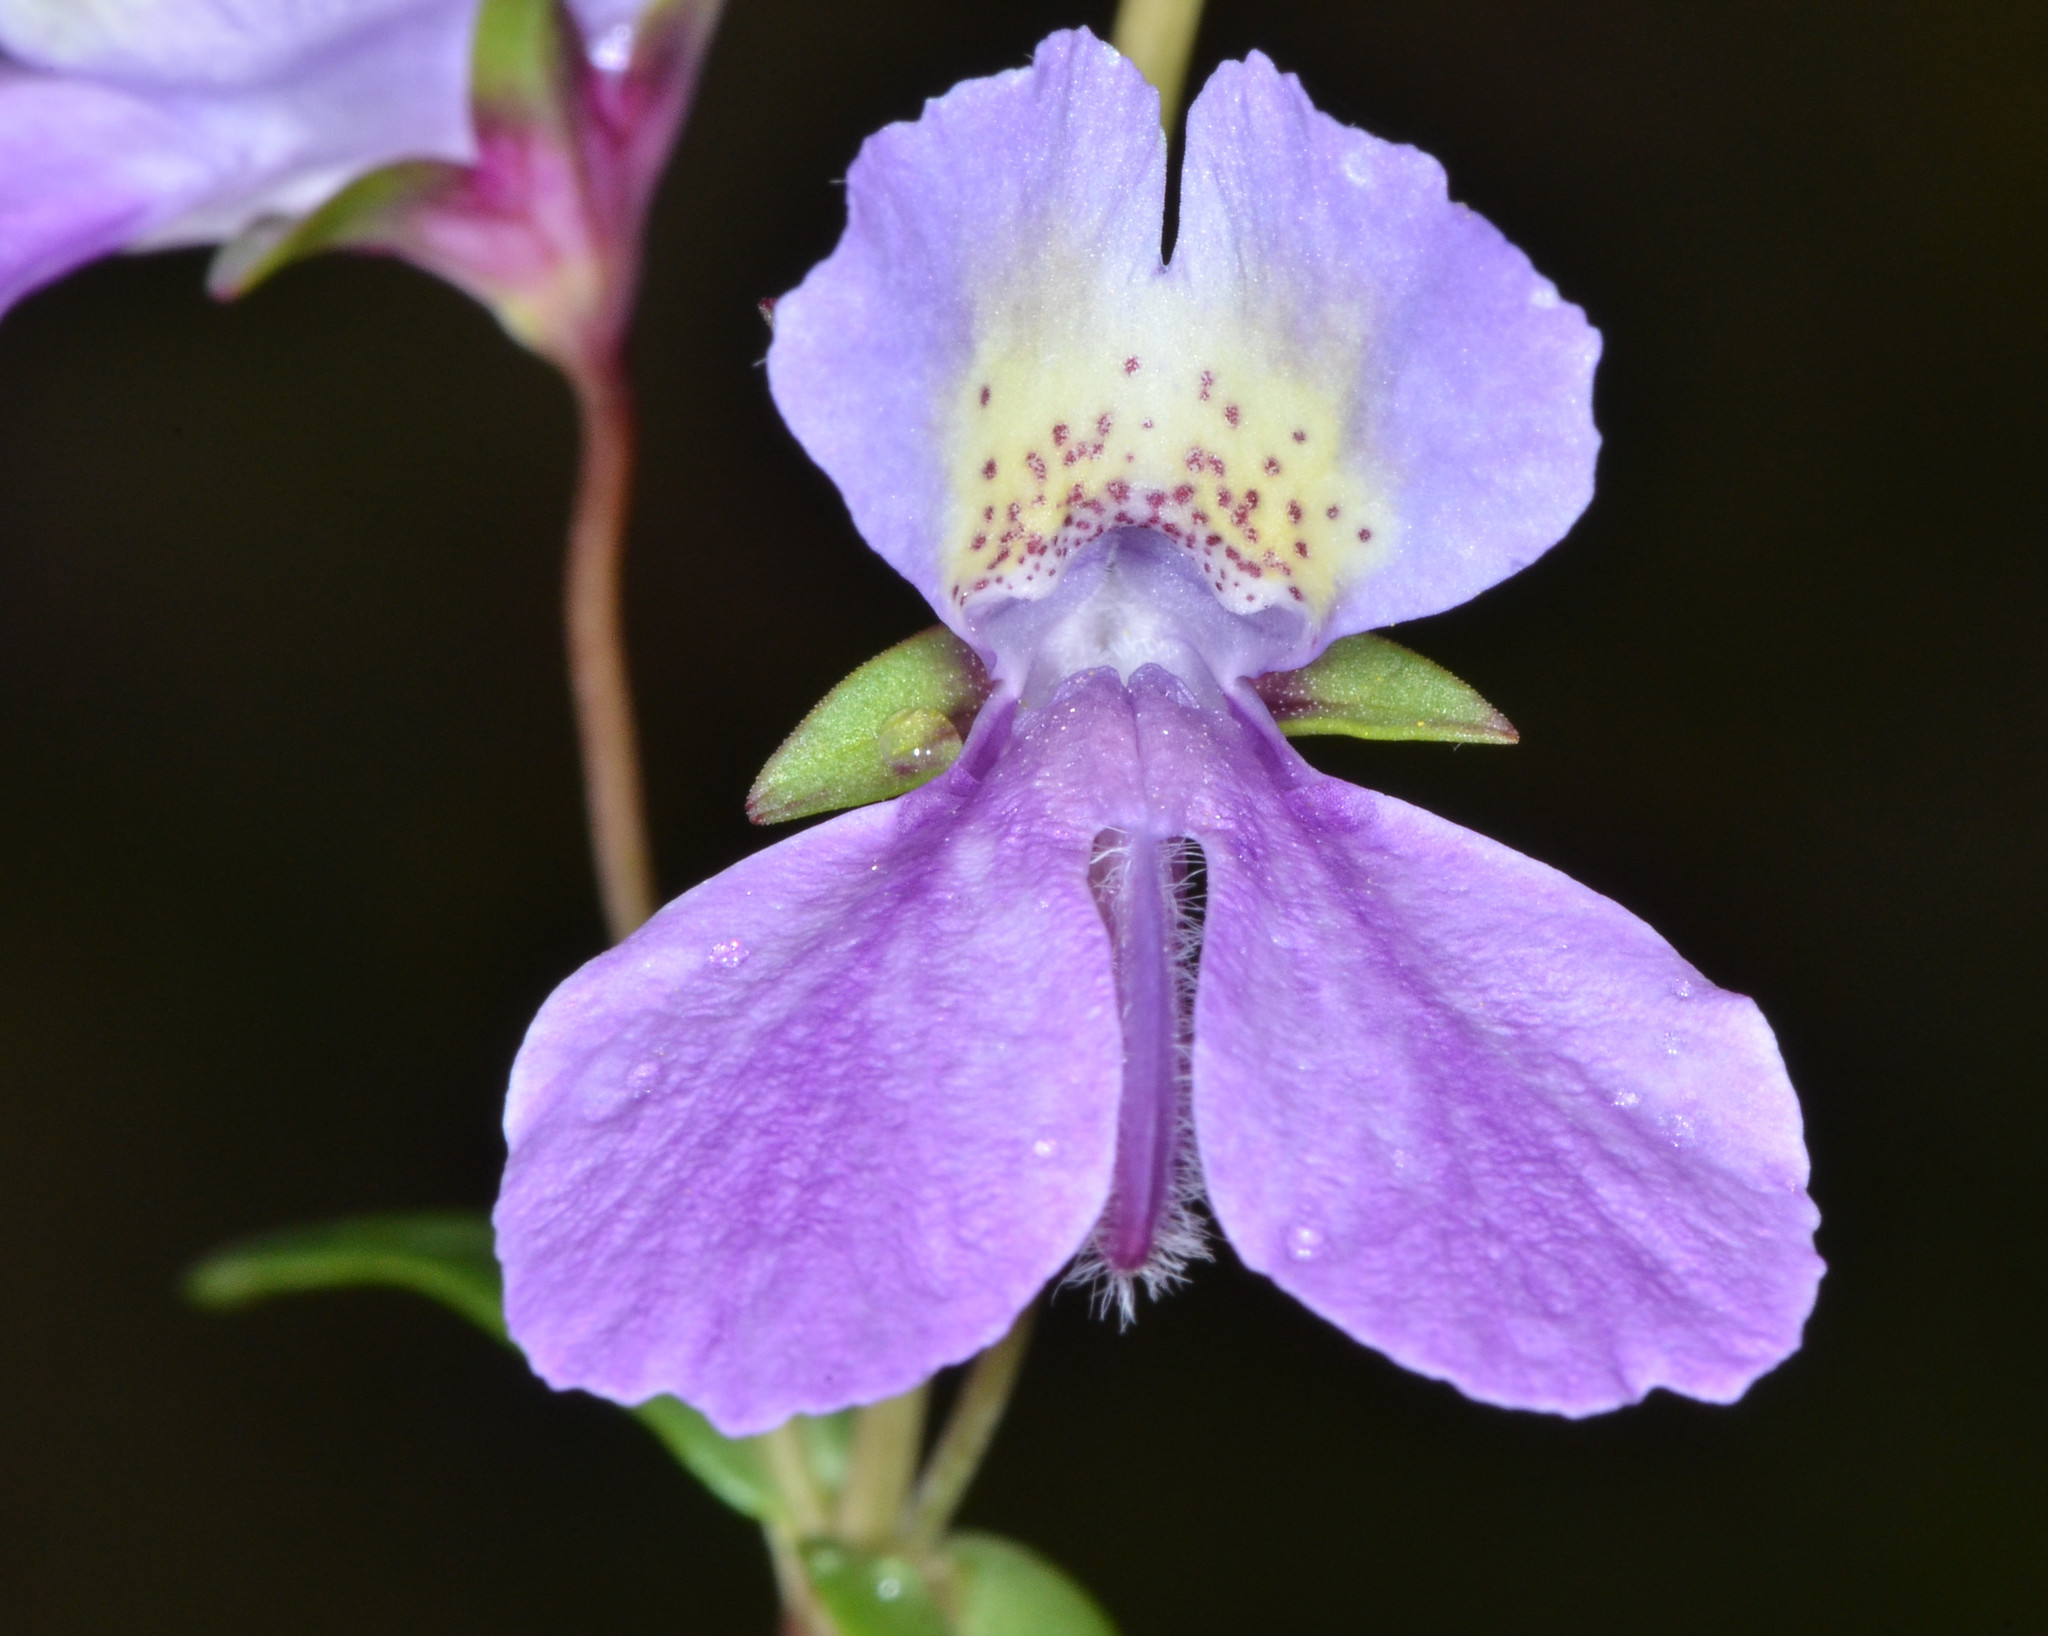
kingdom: Plantae
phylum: Tracheophyta
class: Magnoliopsida
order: Lamiales
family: Plantaginaceae
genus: Collinsia
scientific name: Collinsia sparsiflora
